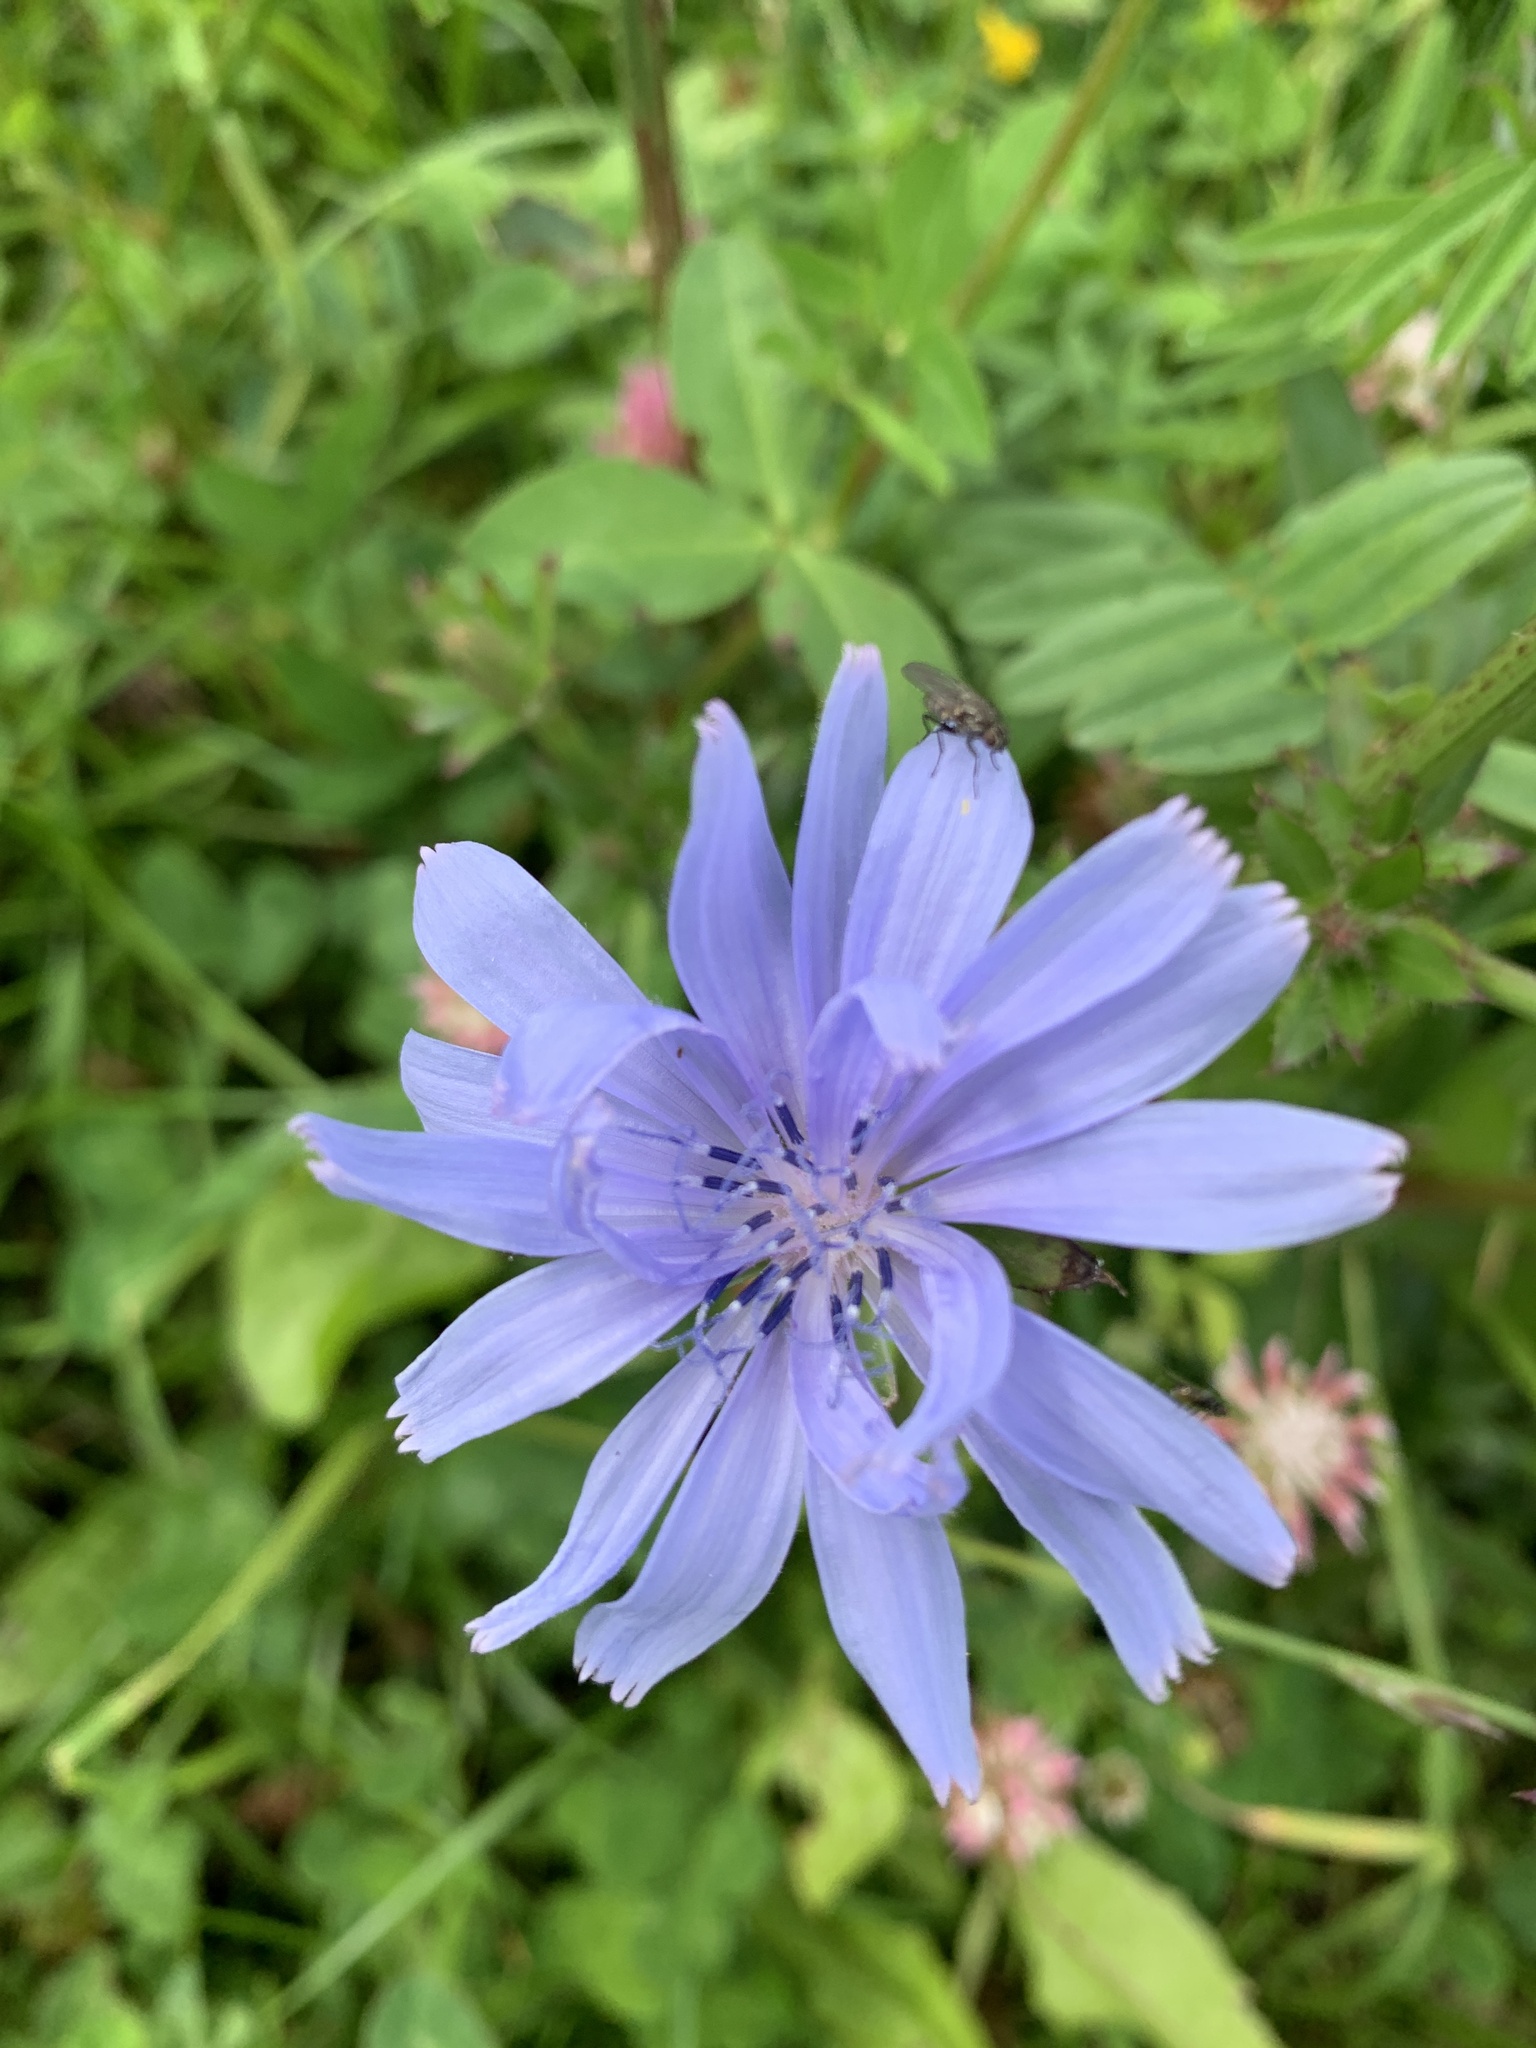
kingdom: Plantae
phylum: Tracheophyta
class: Magnoliopsida
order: Asterales
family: Asteraceae
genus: Cichorium
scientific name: Cichorium intybus
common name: Chicory
